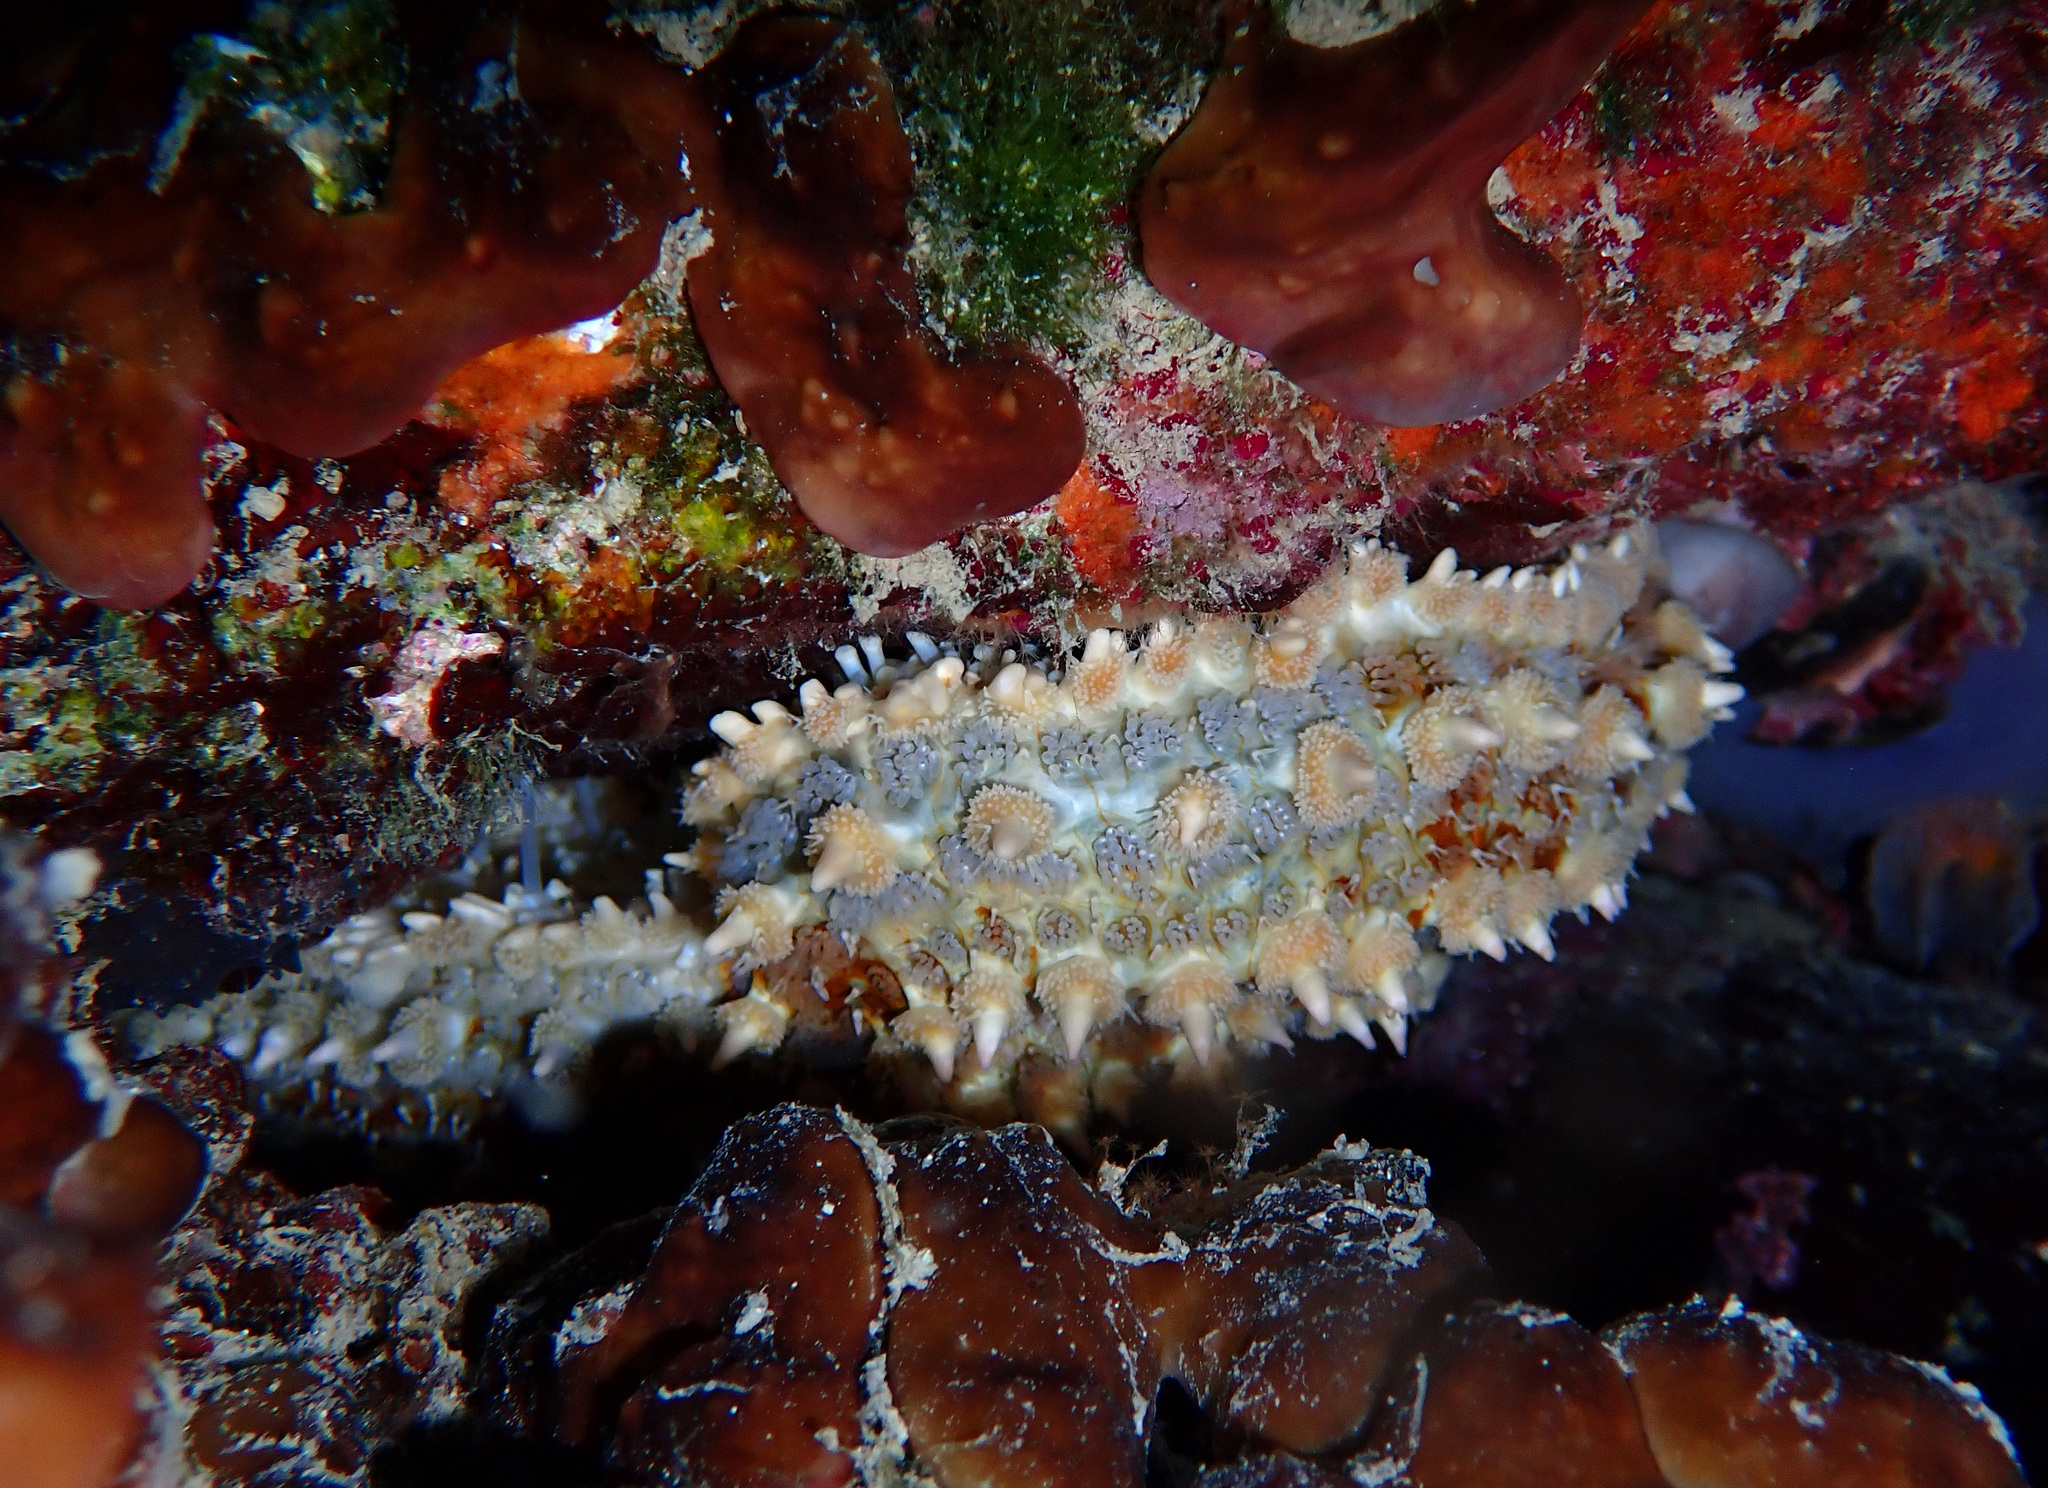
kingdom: Animalia
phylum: Echinodermata
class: Asteroidea
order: Forcipulatida
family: Asteriidae
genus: Marthasterias
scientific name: Marthasterias glacialis
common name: Spiny starfish
